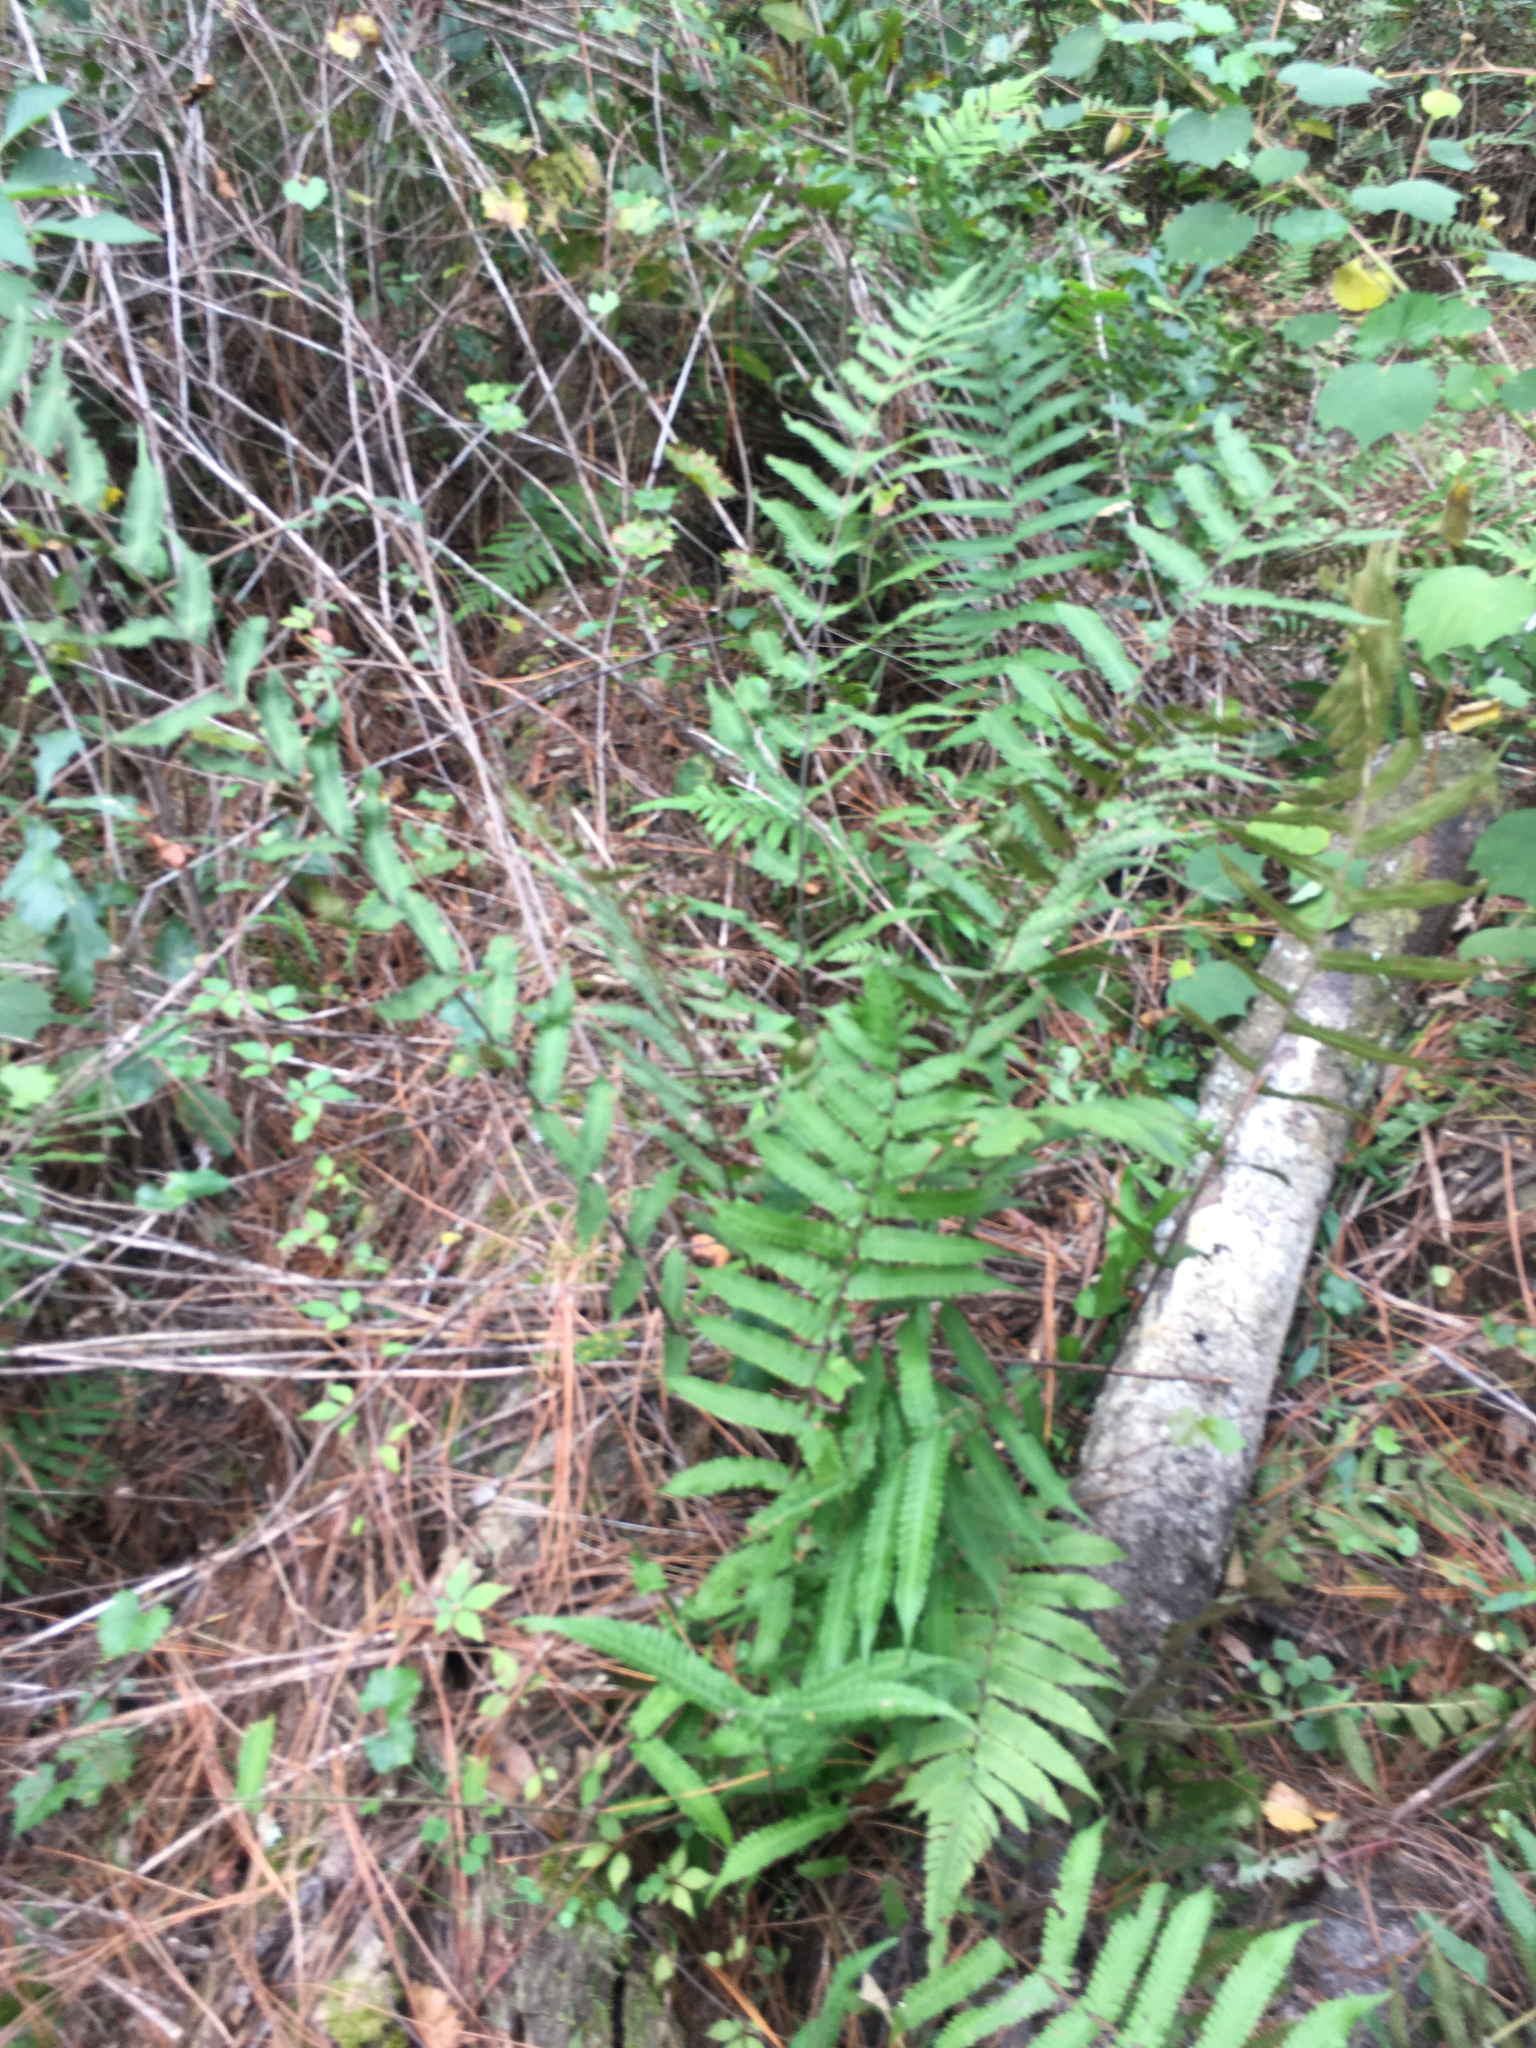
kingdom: Plantae
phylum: Tracheophyta
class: Polypodiopsida
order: Polypodiales
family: Thelypteridaceae
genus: Christella
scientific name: Christella dentata
